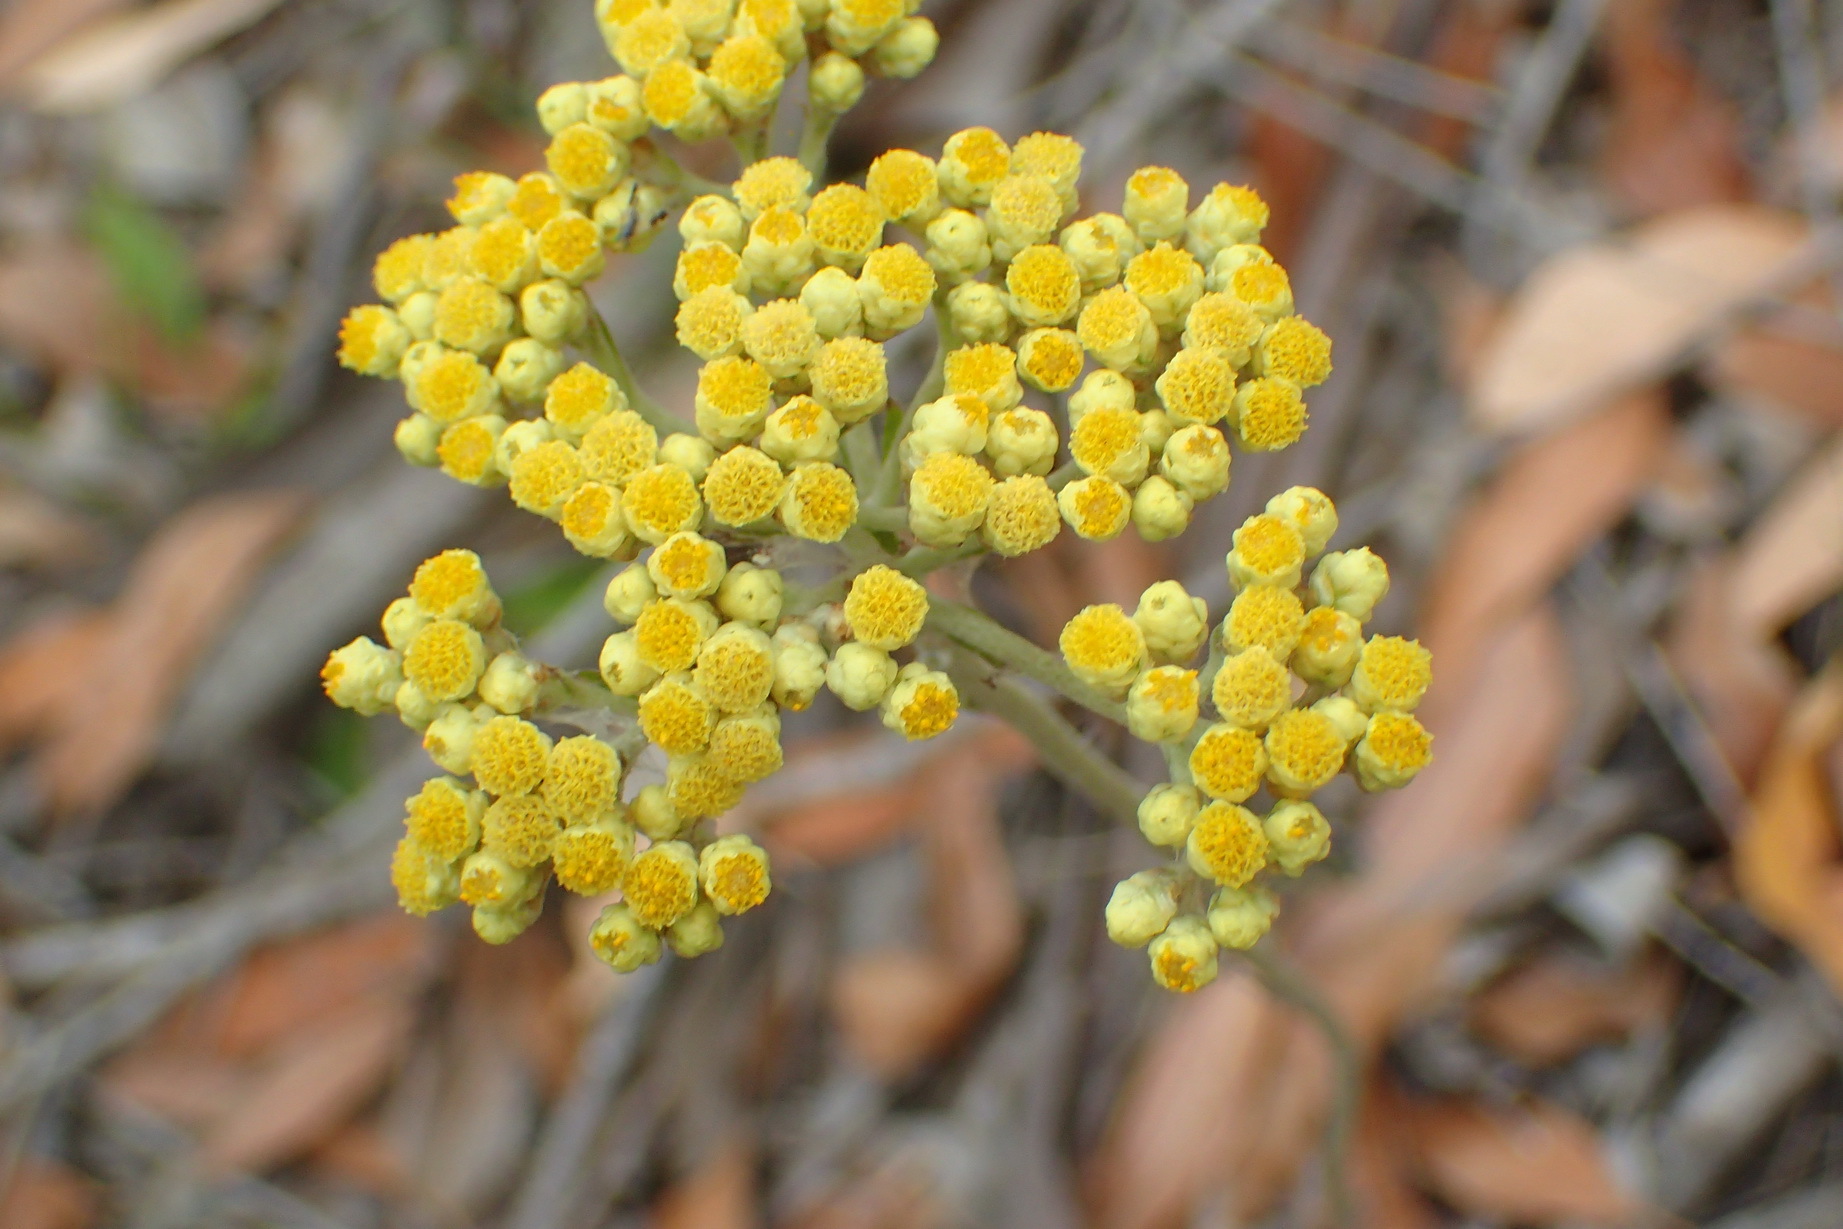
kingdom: Plantae
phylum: Tracheophyta
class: Magnoliopsida
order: Asterales
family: Asteraceae
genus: Helichrysum
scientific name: Helichrysum nudifolium
